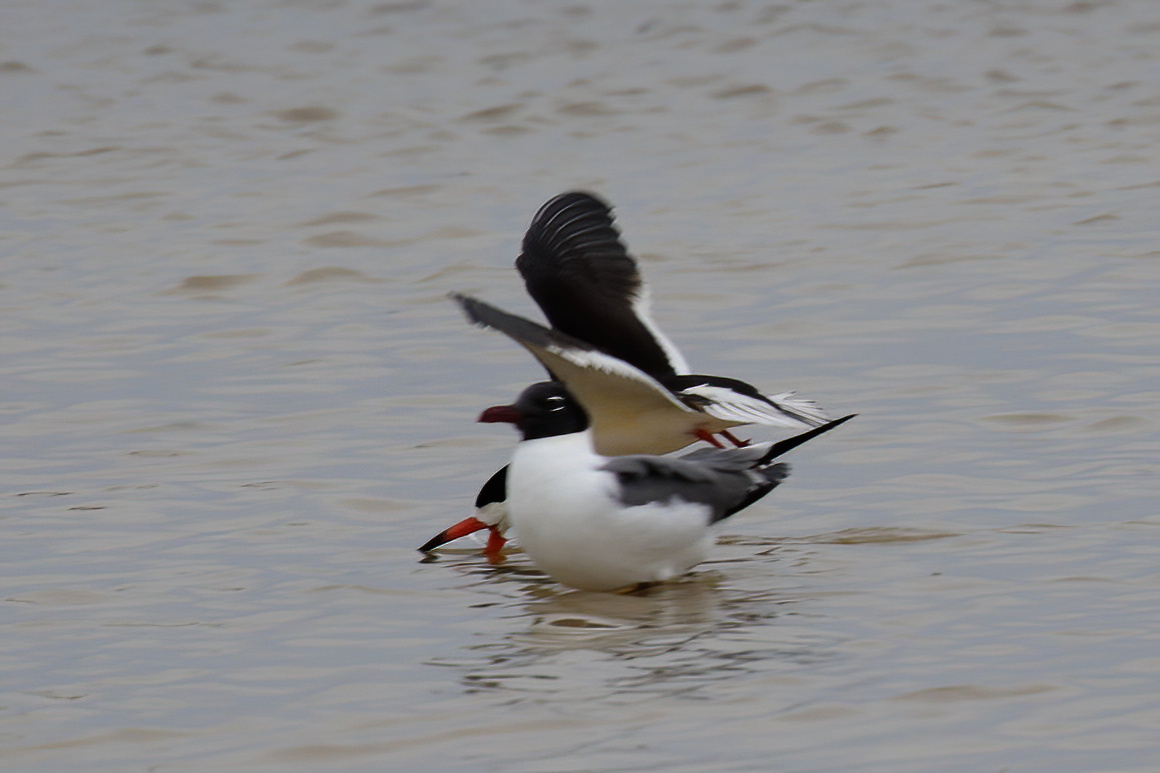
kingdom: Animalia
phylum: Chordata
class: Aves
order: Charadriiformes
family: Laridae
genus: Rynchops
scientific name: Rynchops niger
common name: Black skimmer
